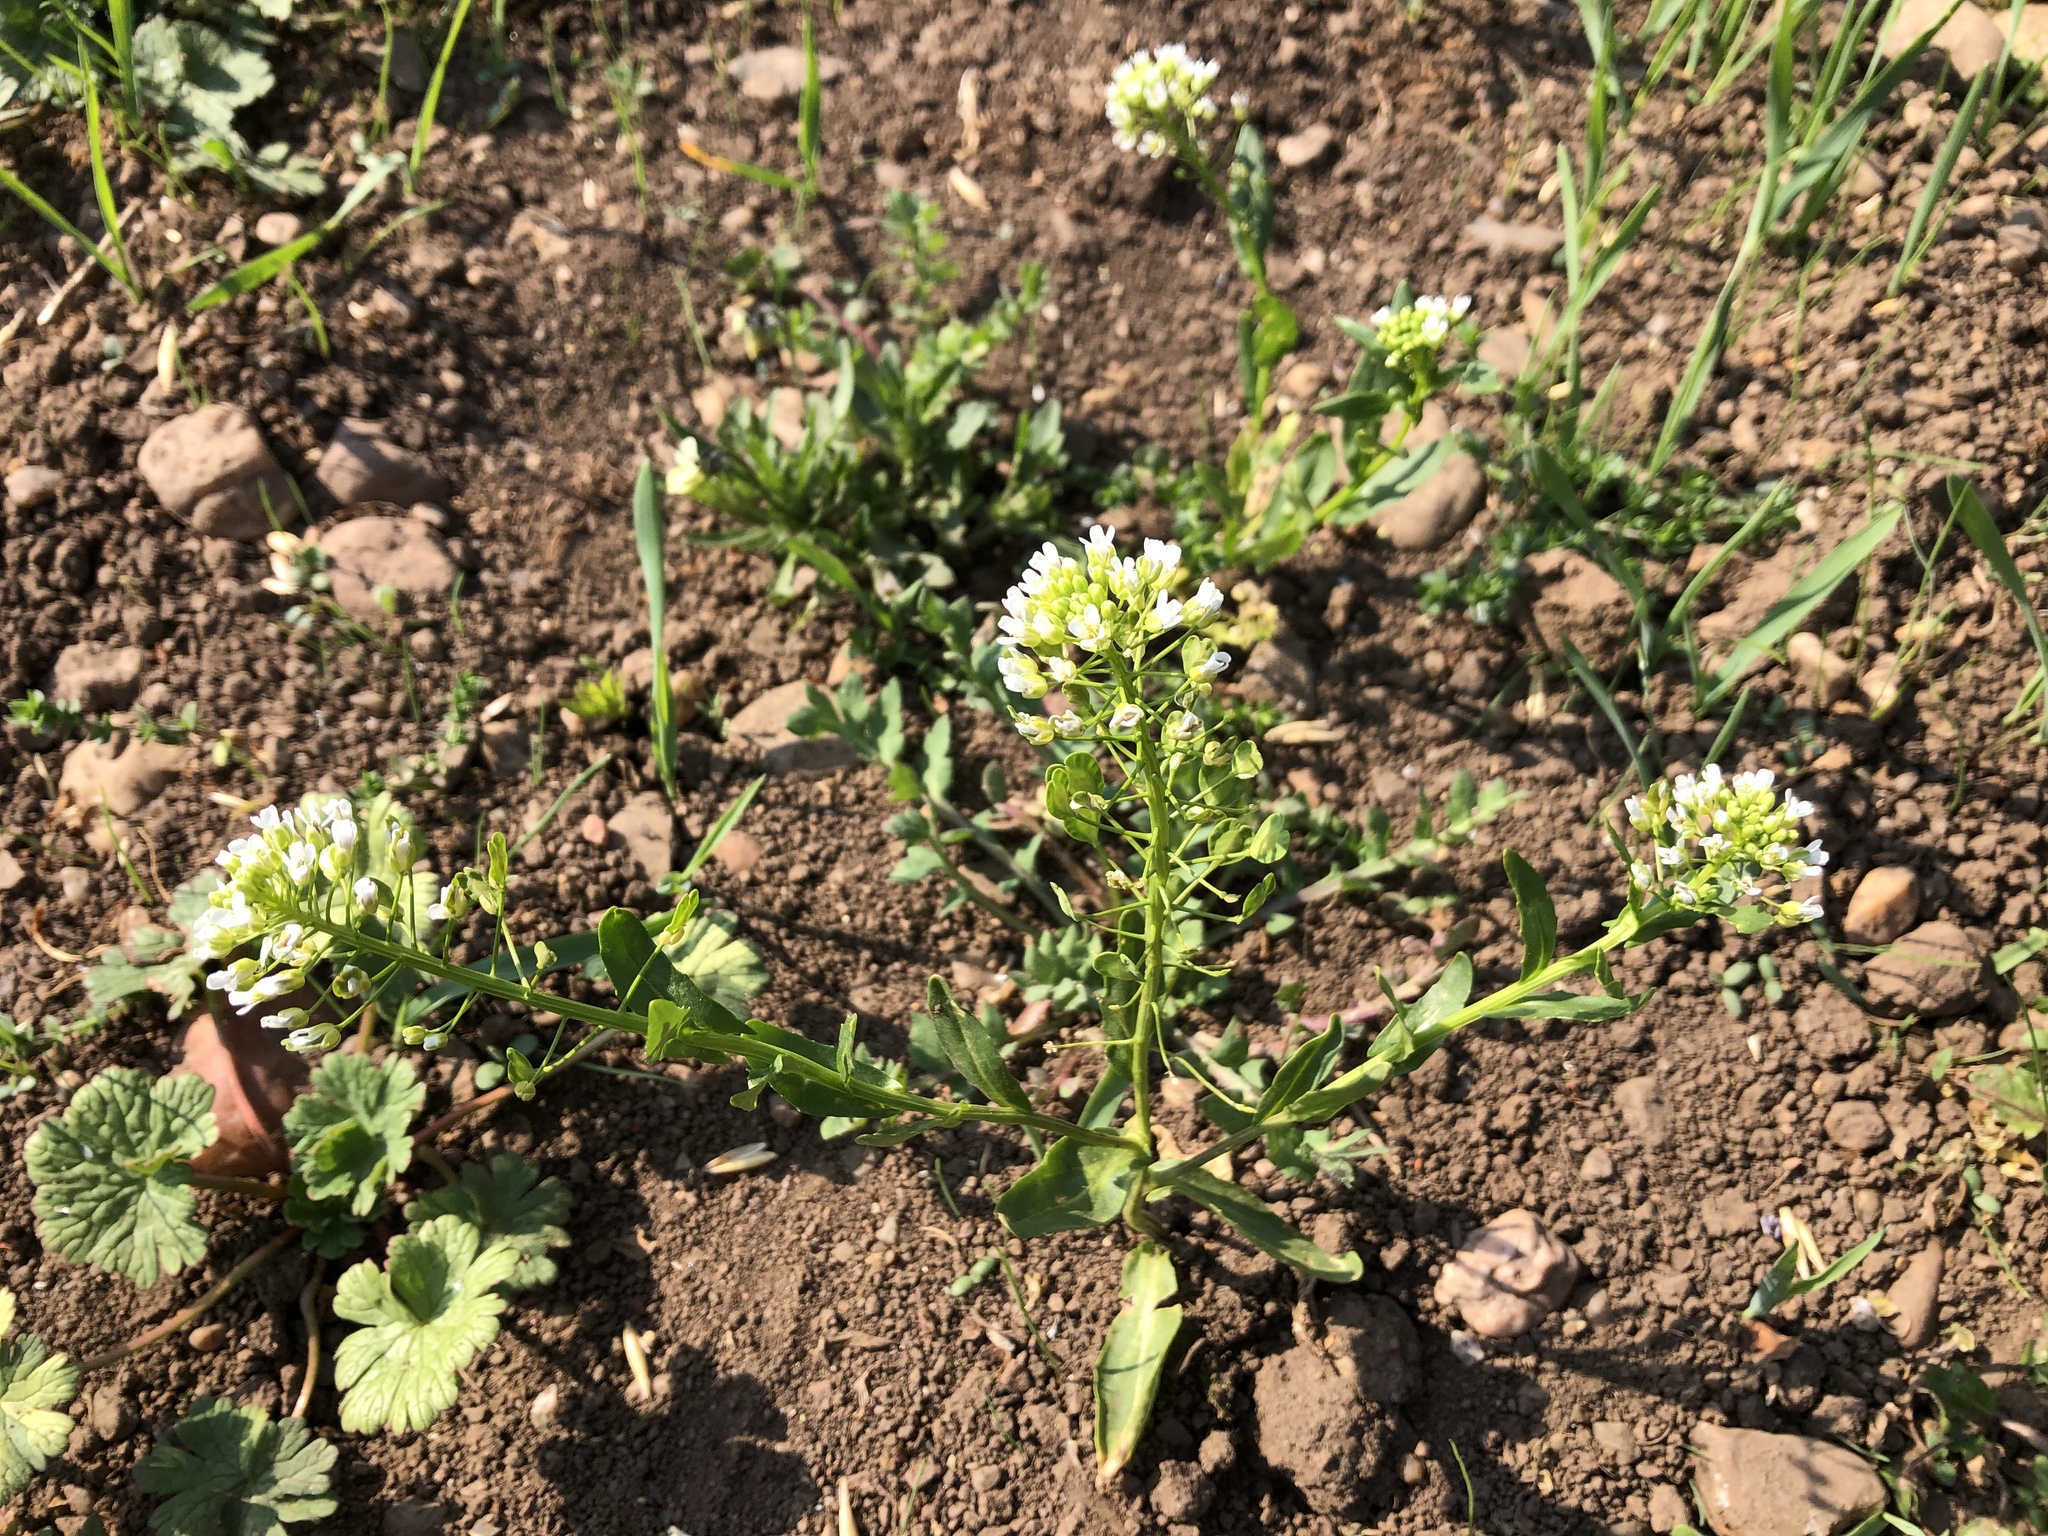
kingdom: Plantae
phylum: Tracheophyta
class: Magnoliopsida
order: Brassicales
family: Brassicaceae
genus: Thlaspi
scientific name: Thlaspi arvense
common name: Field pennycress
